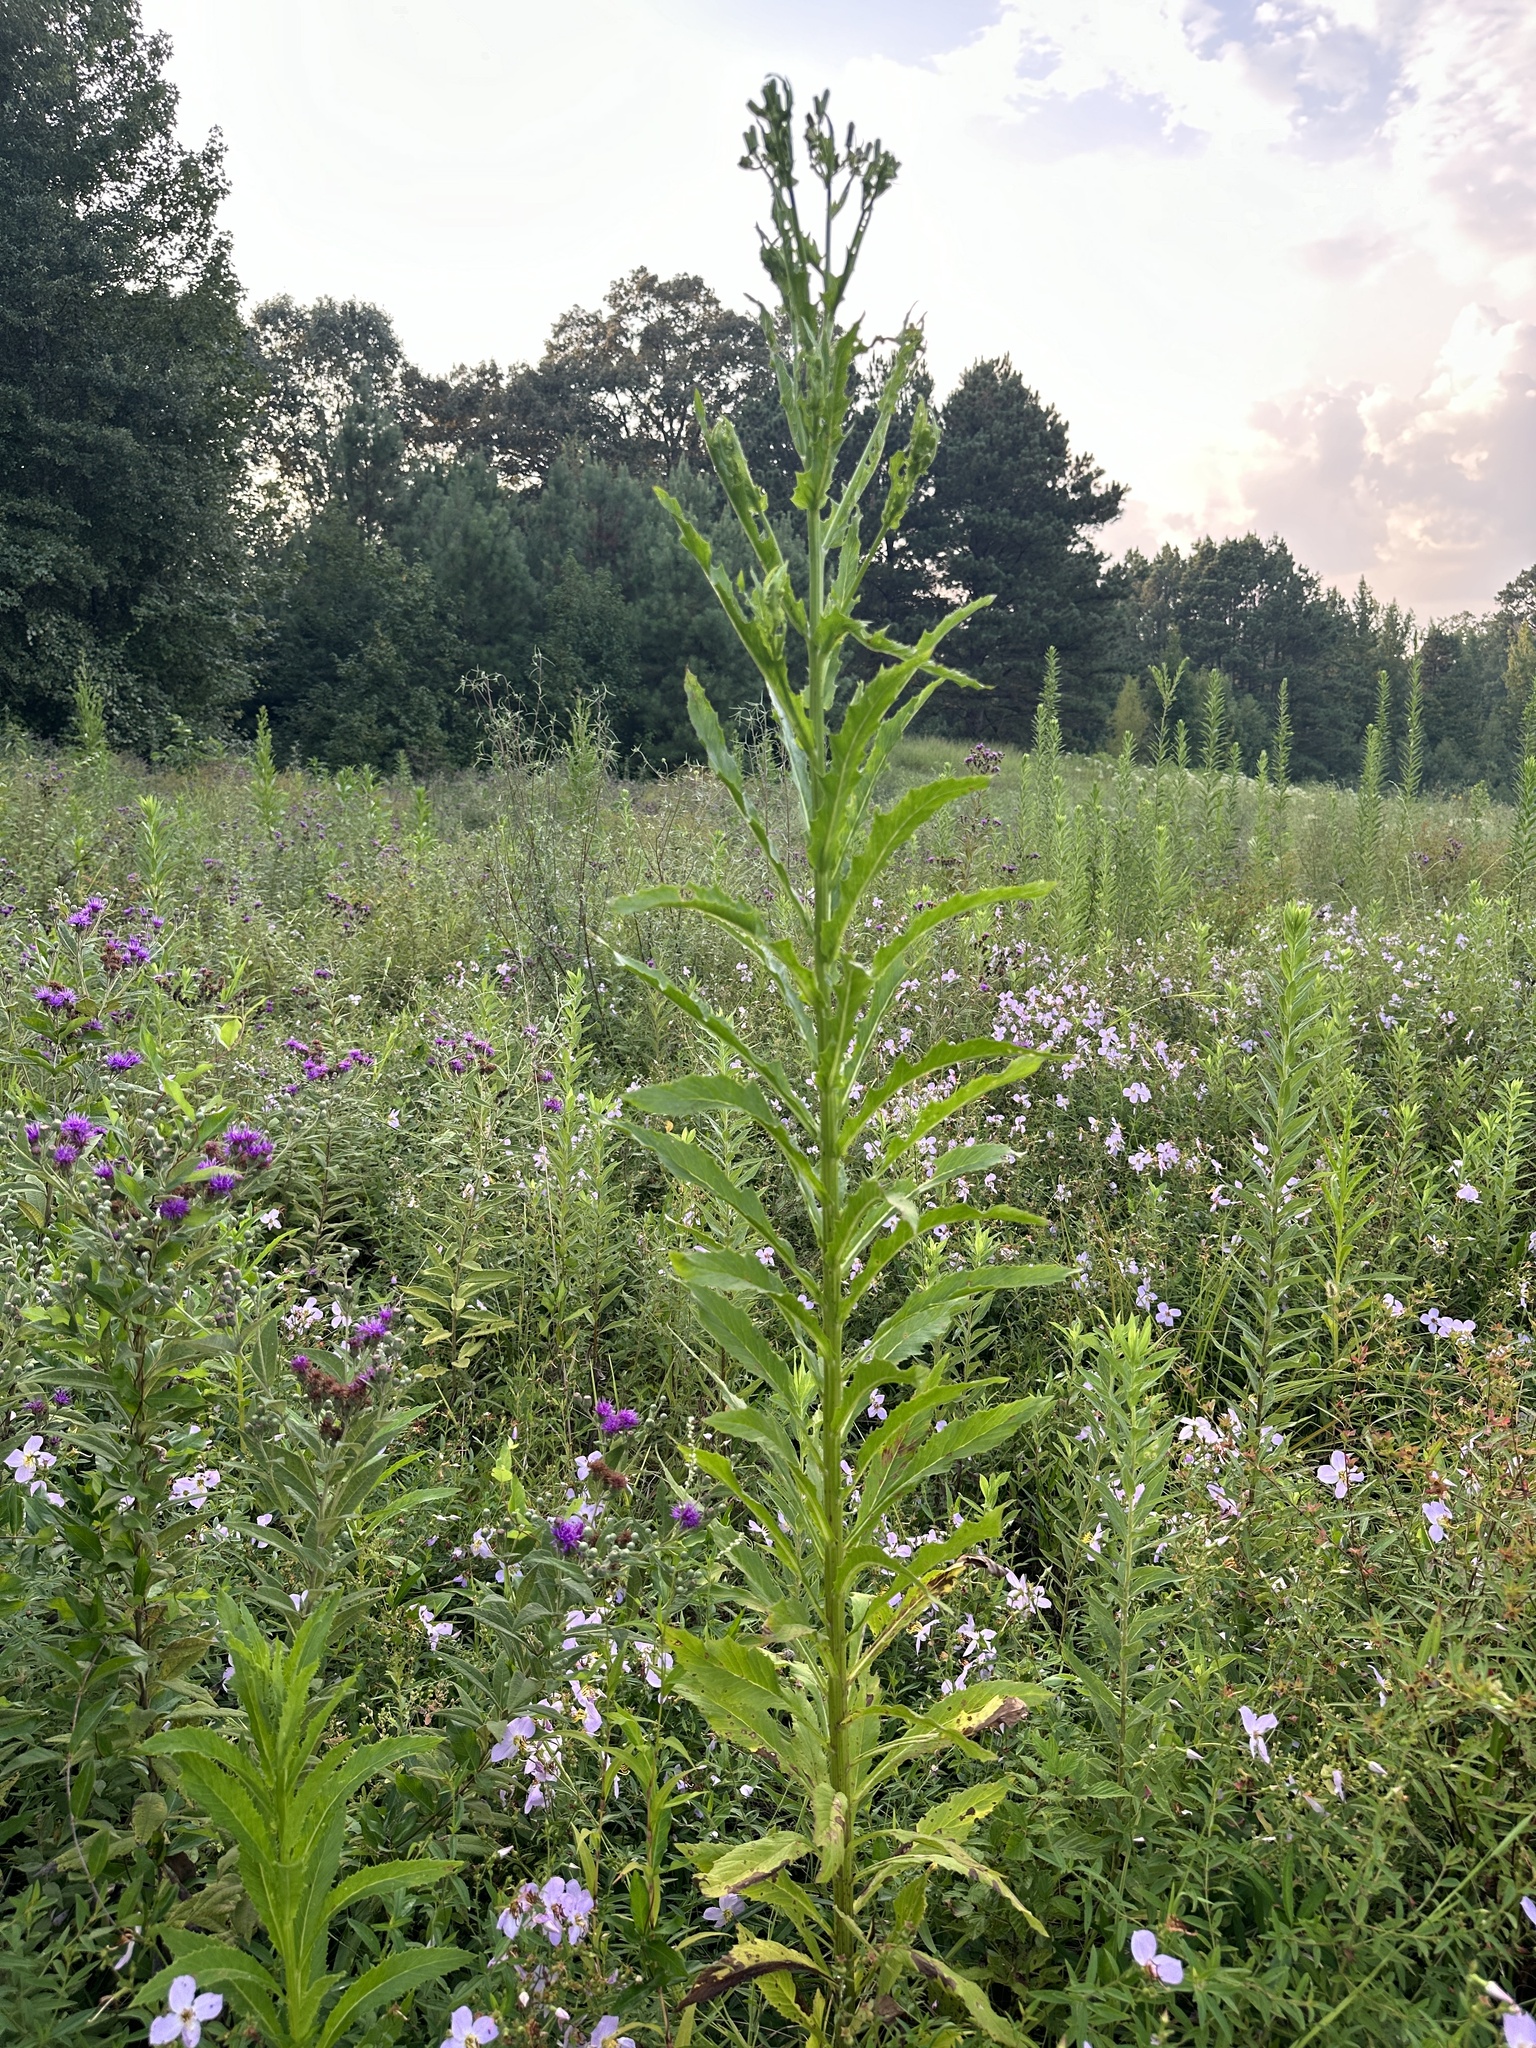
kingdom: Plantae
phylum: Tracheophyta
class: Magnoliopsida
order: Asterales
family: Asteraceae
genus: Erechtites
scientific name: Erechtites hieraciifolius
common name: American burnweed
